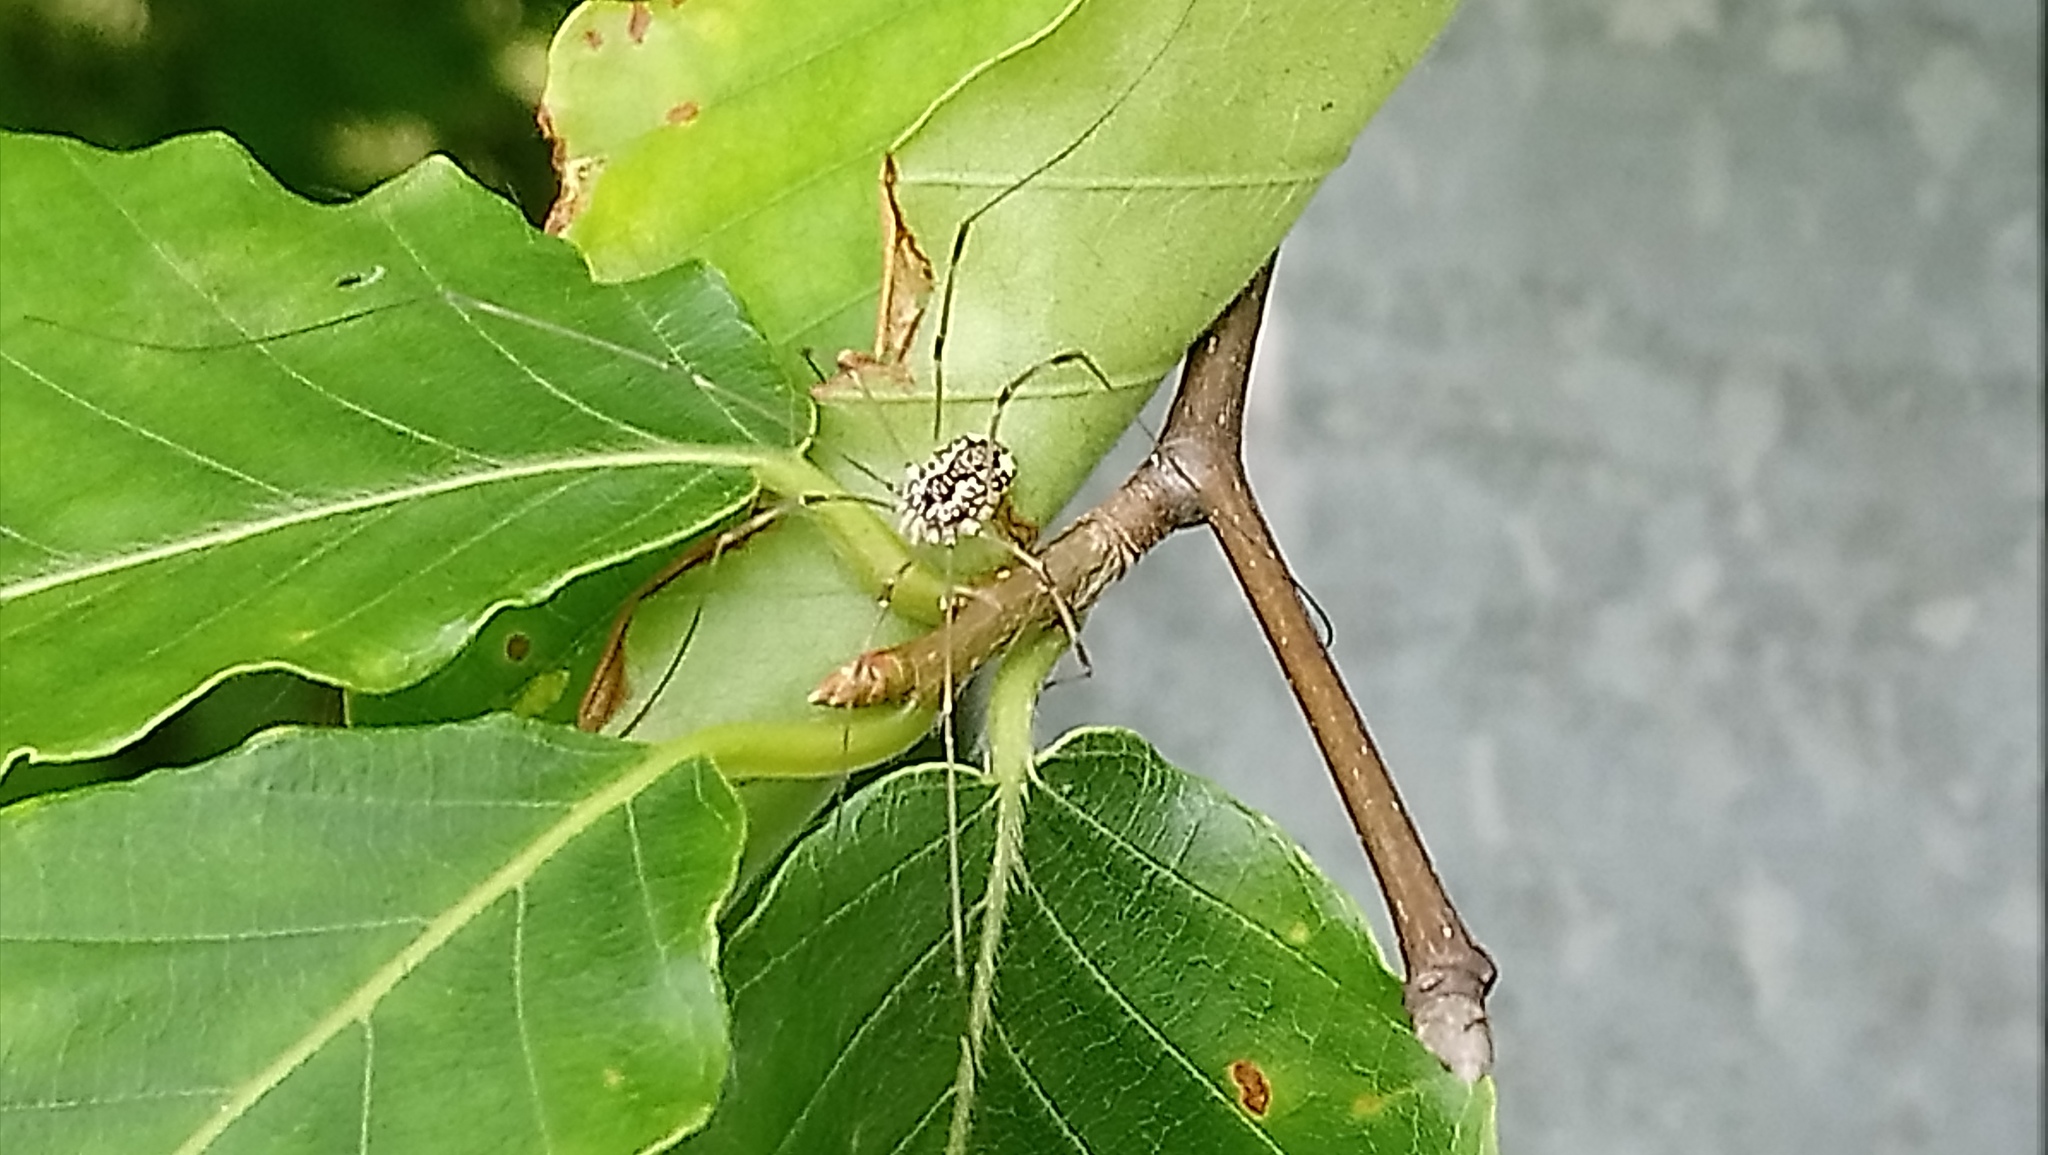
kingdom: Animalia
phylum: Arthropoda
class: Arachnida
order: Opiliones
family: Sclerosomatidae
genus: Leiobunum
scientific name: Leiobunum vittatum
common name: Eastern harvestman
